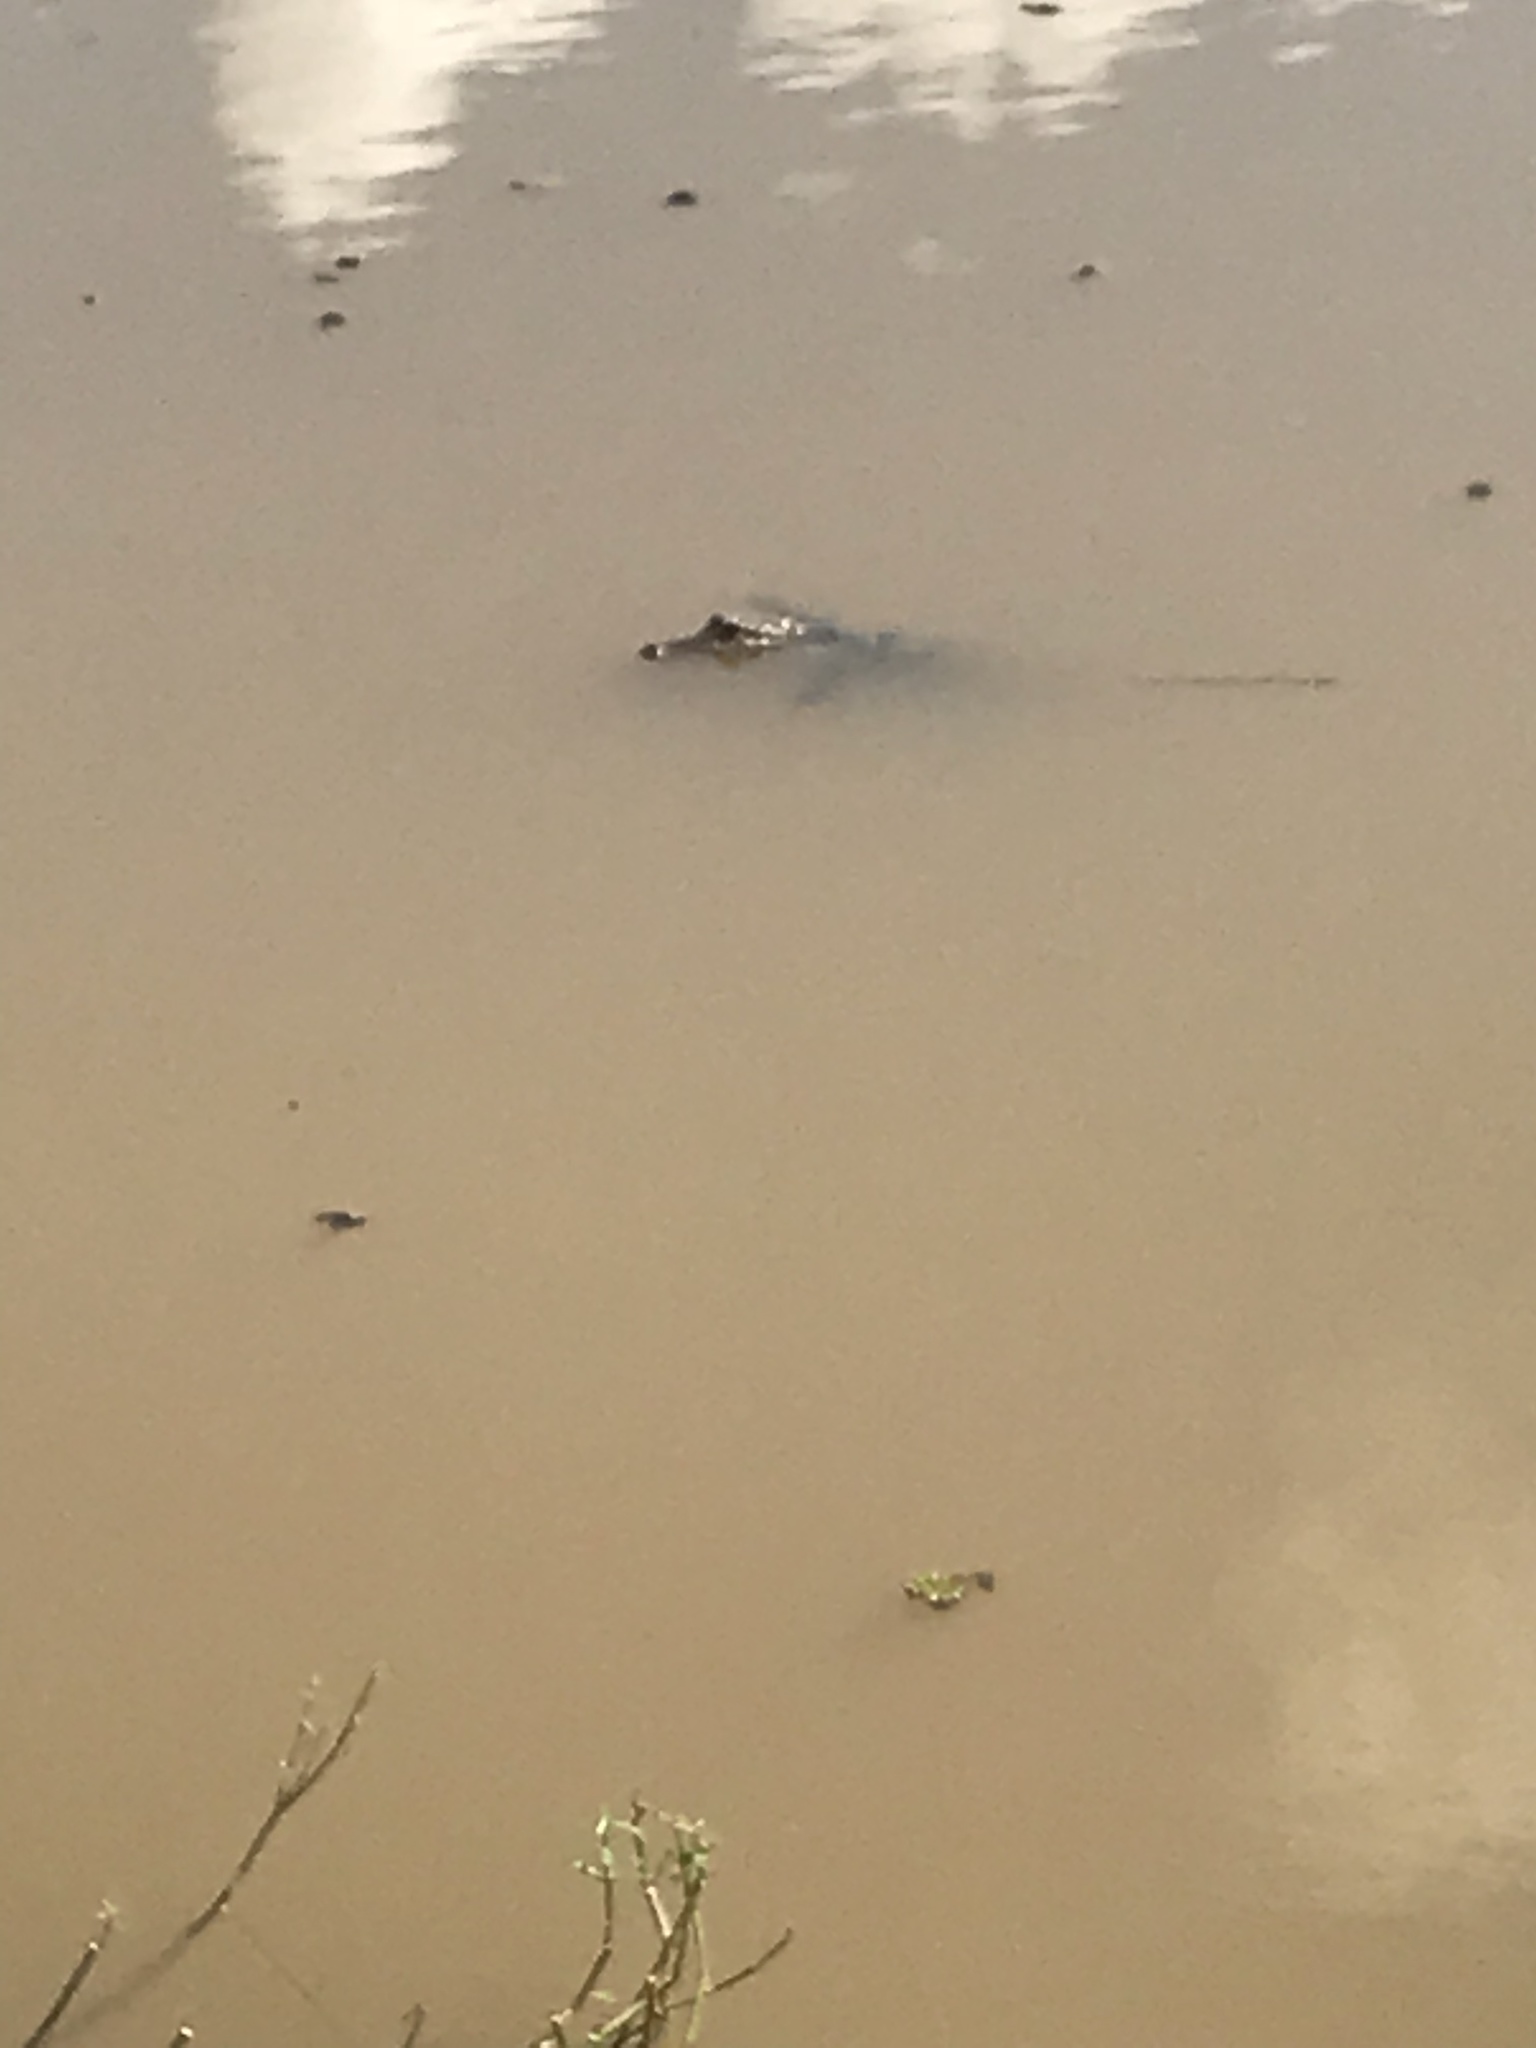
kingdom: Animalia
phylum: Chordata
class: Crocodylia
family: Alligatoridae
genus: Alligator
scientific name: Alligator mississippiensis
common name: American alligator
